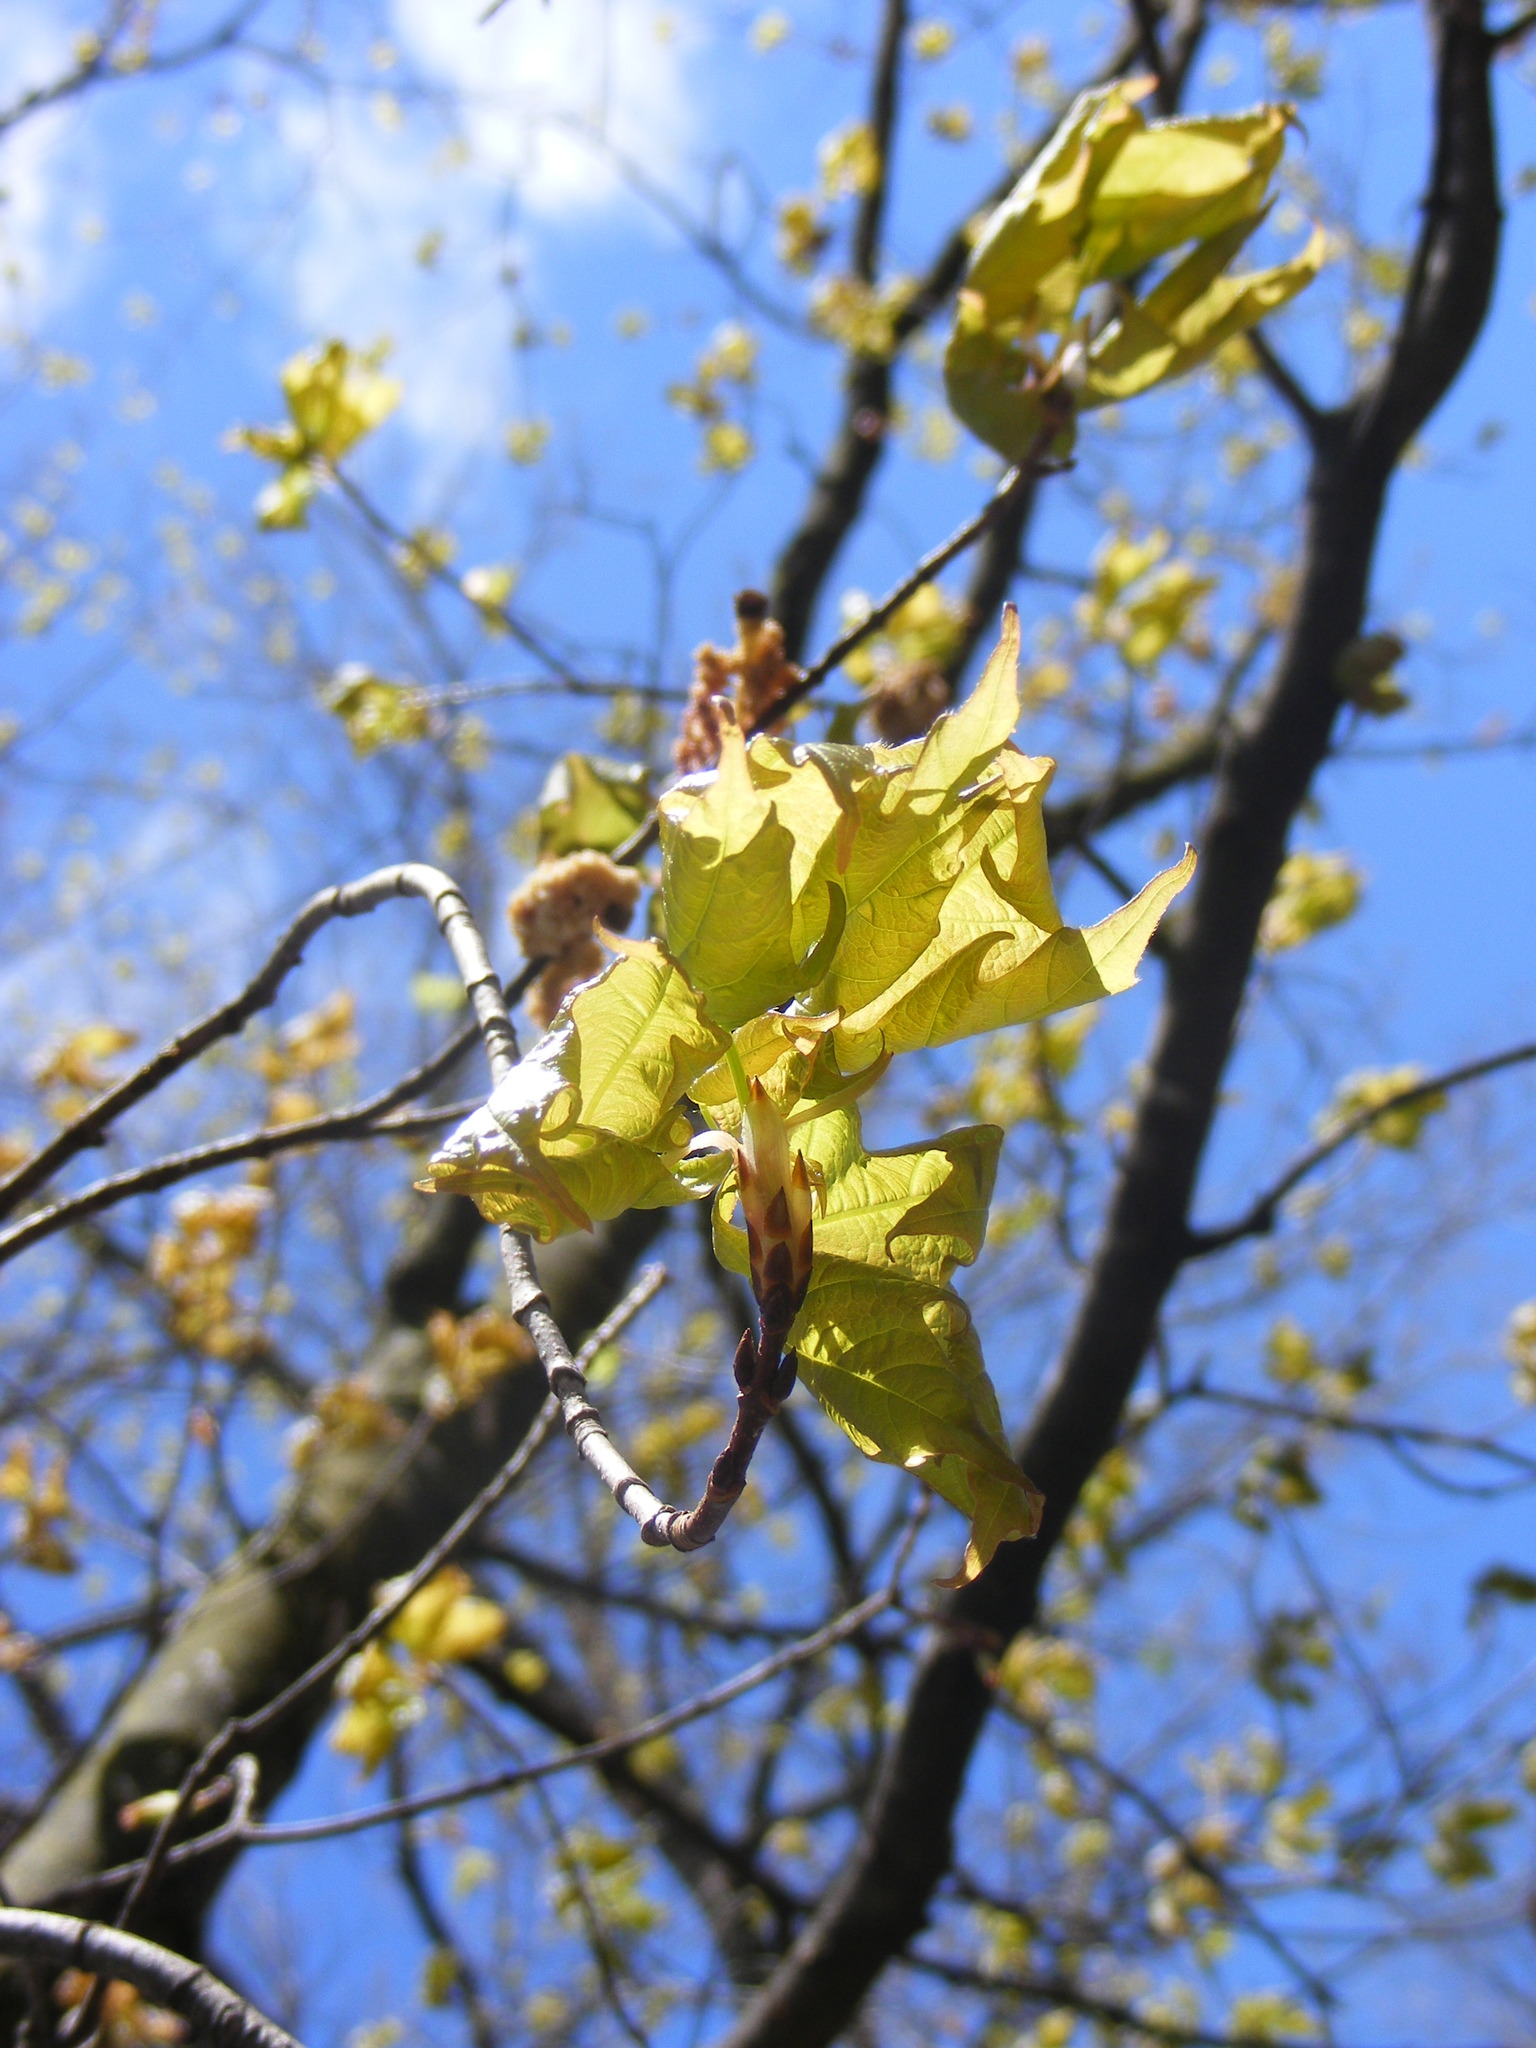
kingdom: Plantae
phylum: Tracheophyta
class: Magnoliopsida
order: Sapindales
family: Sapindaceae
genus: Acer
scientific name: Acer platanoides
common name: Norway maple
